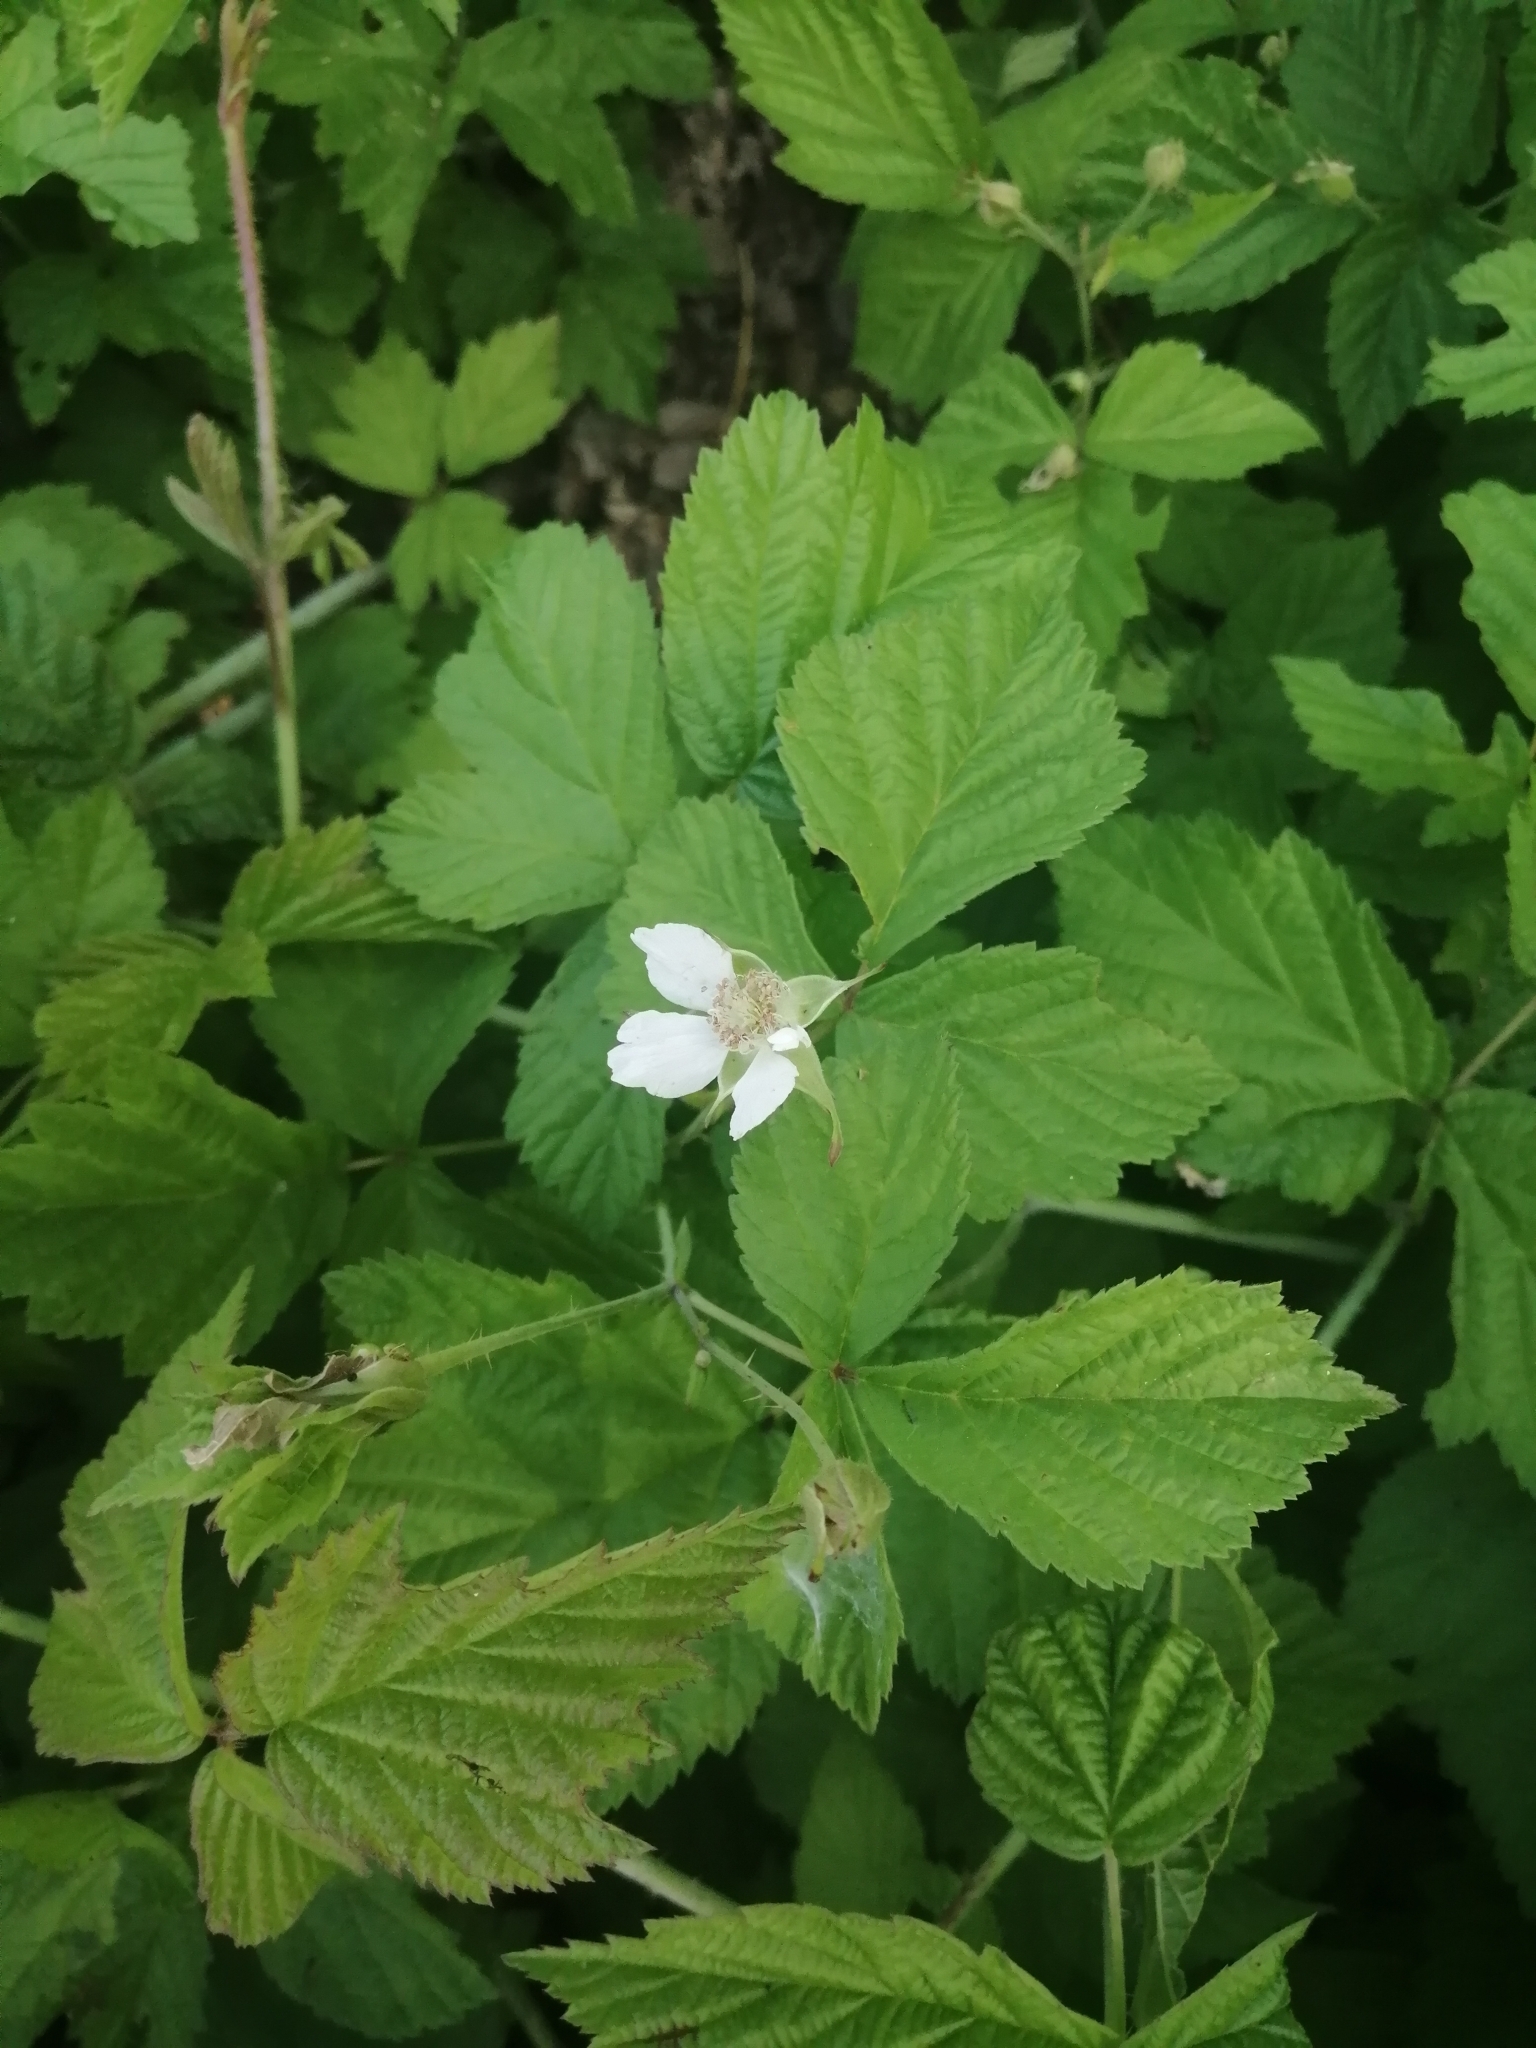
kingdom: Plantae
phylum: Tracheophyta
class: Magnoliopsida
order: Rosales
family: Rosaceae
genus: Rubus
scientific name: Rubus caesius
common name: Dewberry
